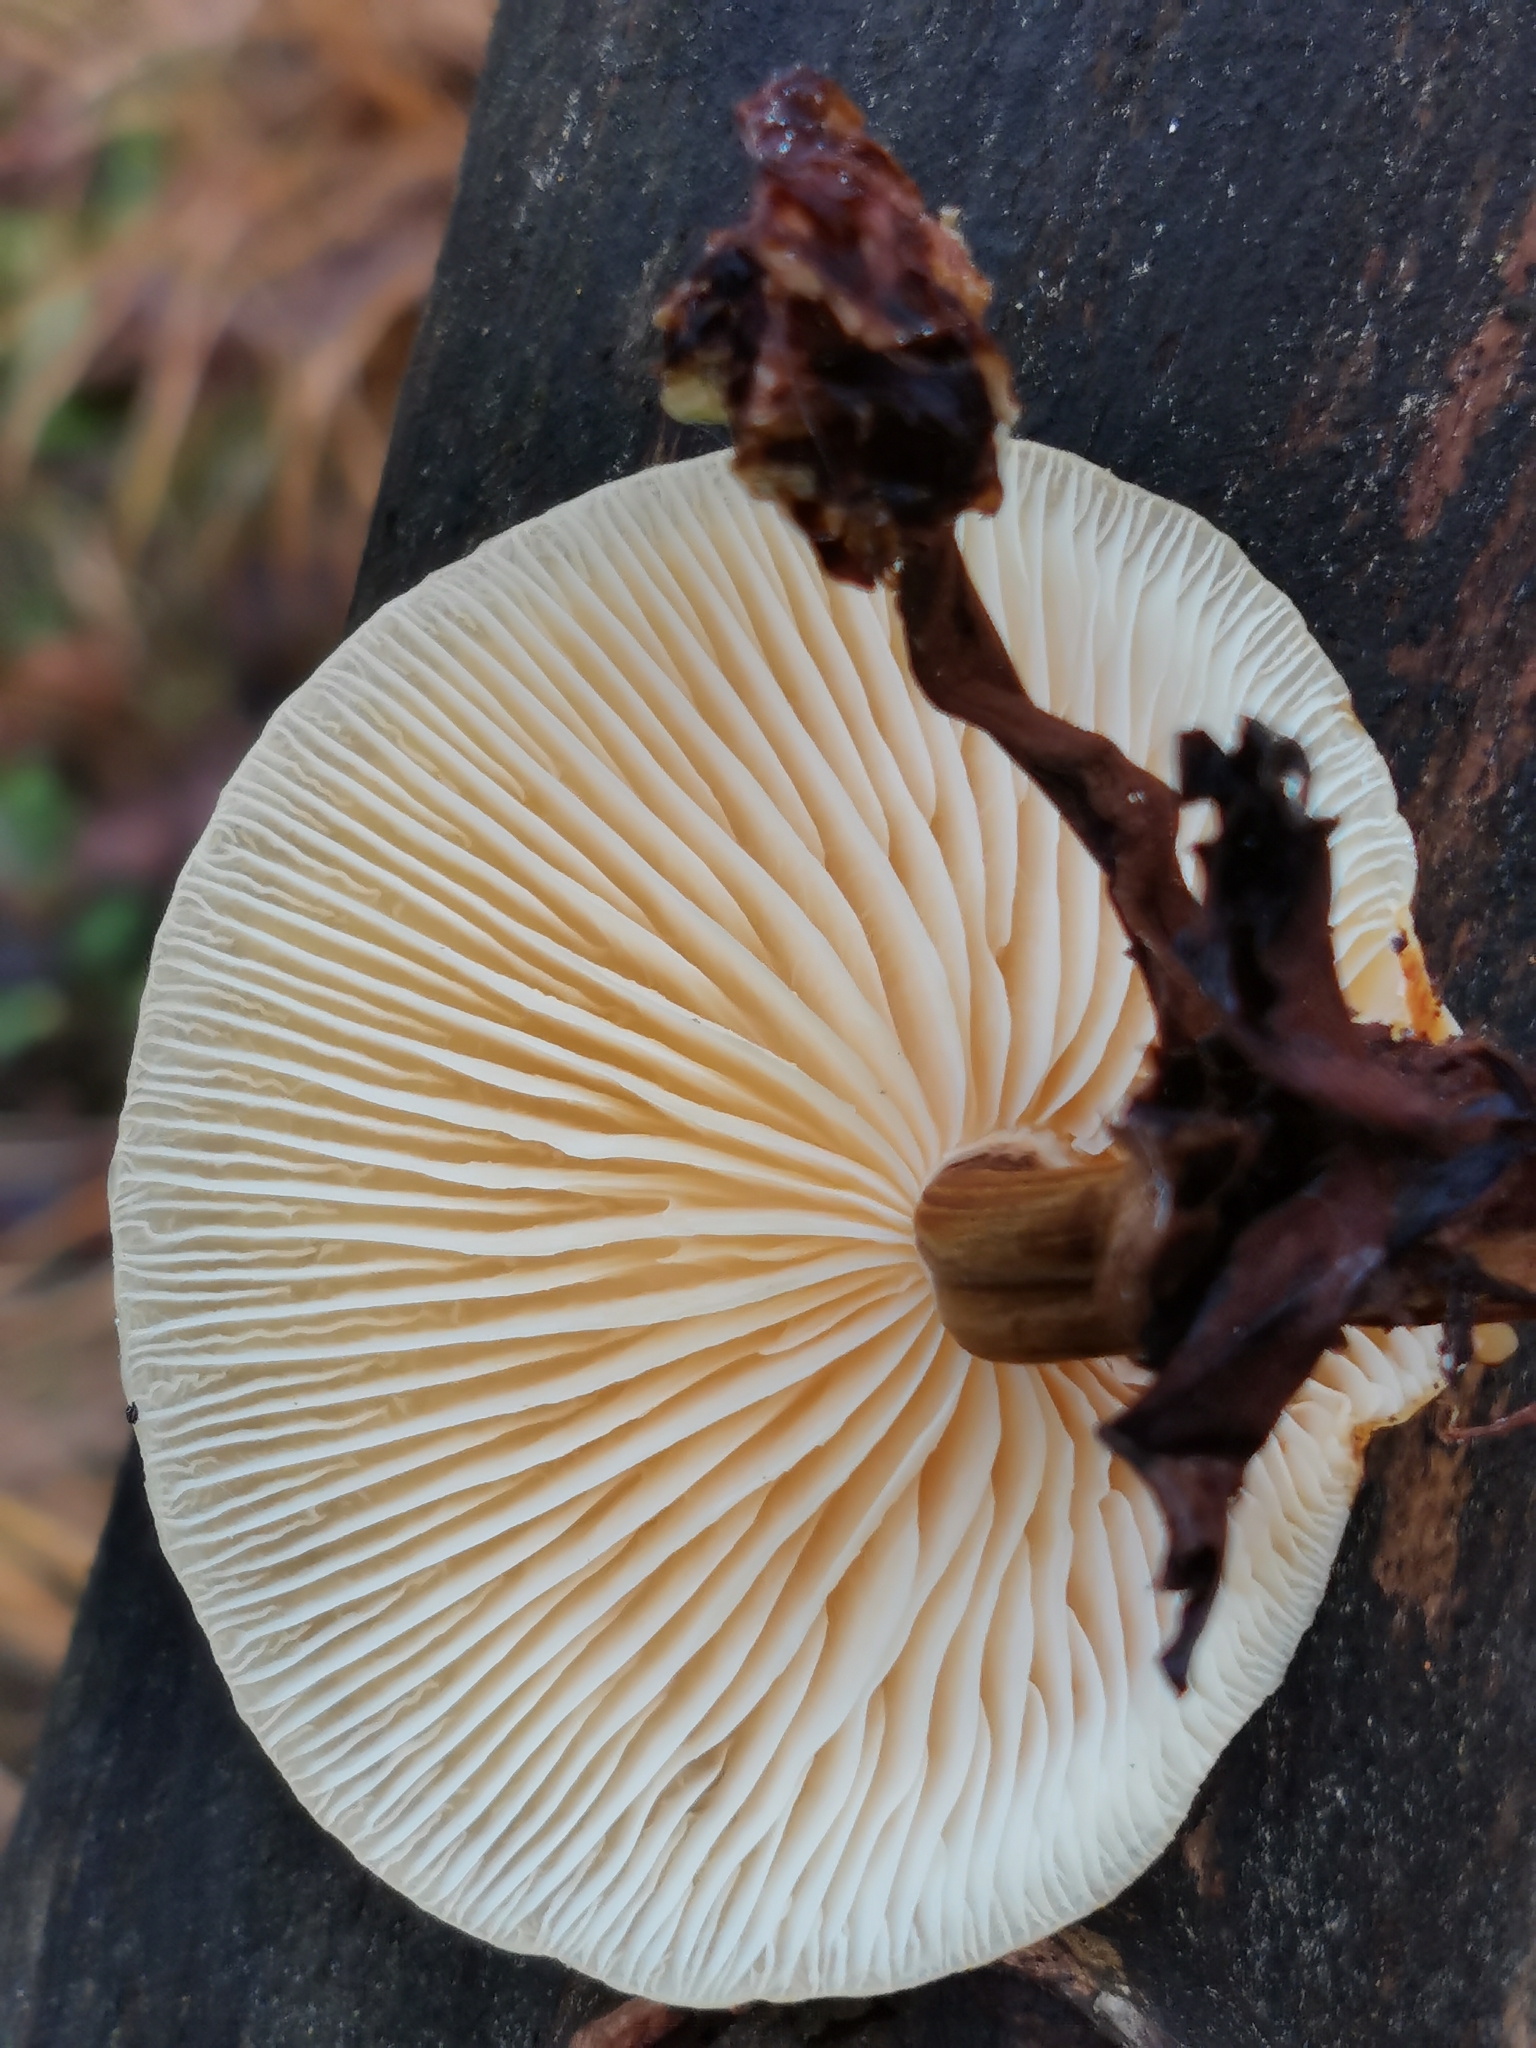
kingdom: Fungi
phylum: Basidiomycota
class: Agaricomycetes
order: Agaricales
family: Physalacriaceae
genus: Flammulina
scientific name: Flammulina
